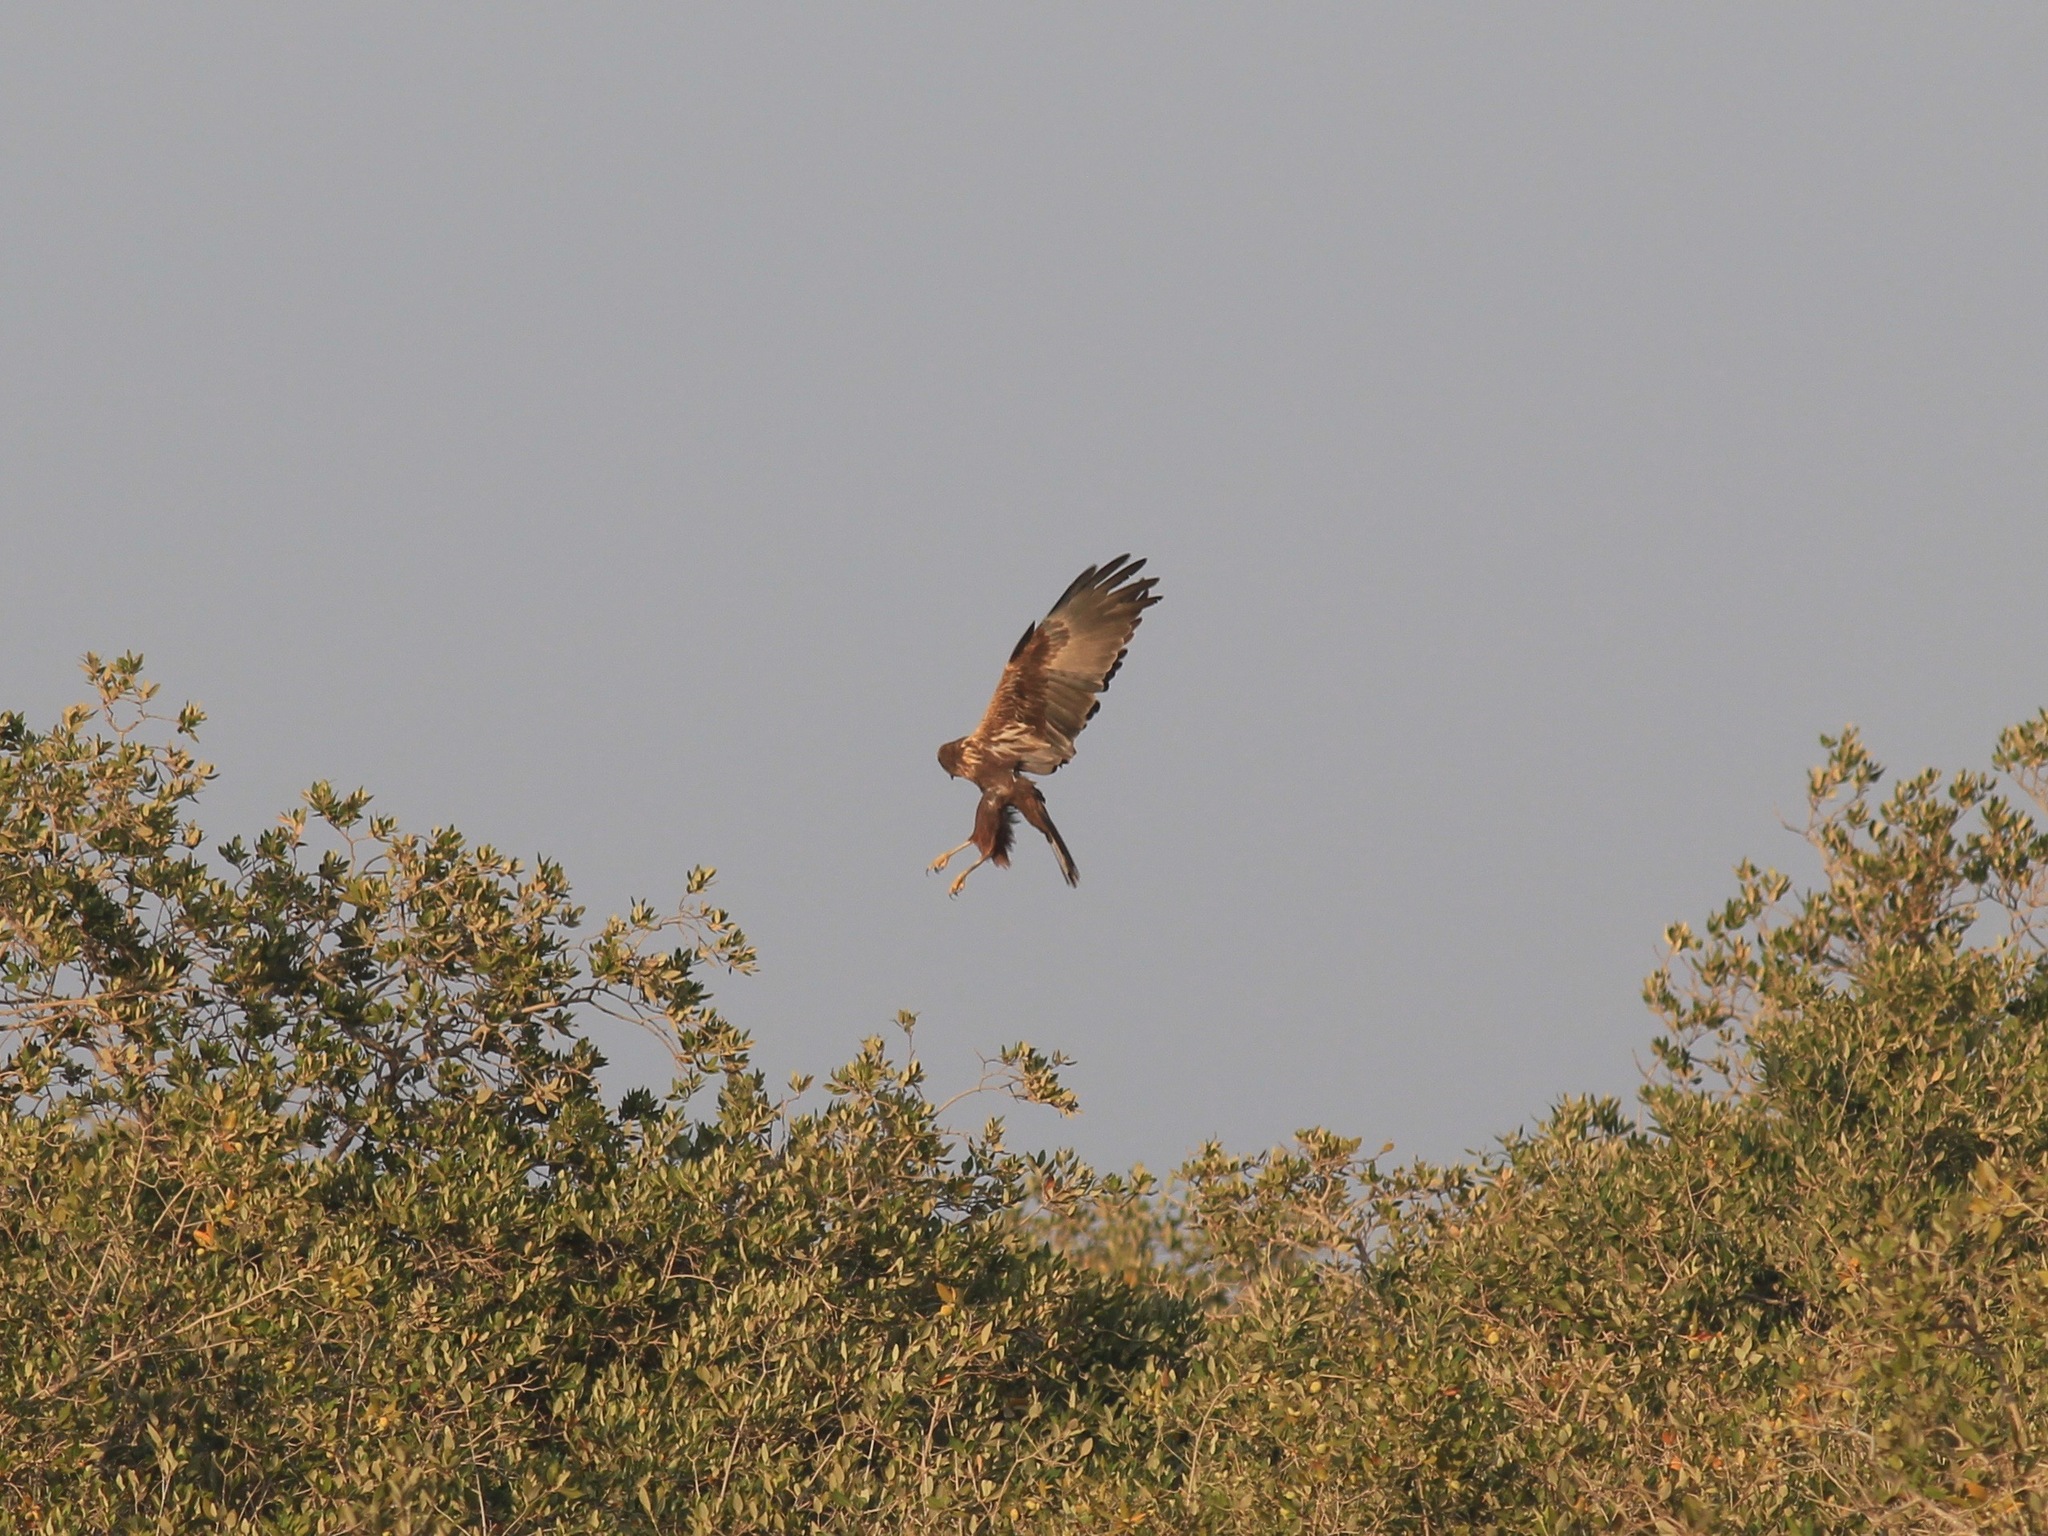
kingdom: Animalia
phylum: Chordata
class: Aves
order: Accipitriformes
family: Accipitridae
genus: Circus
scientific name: Circus aeruginosus
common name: Western marsh harrier
